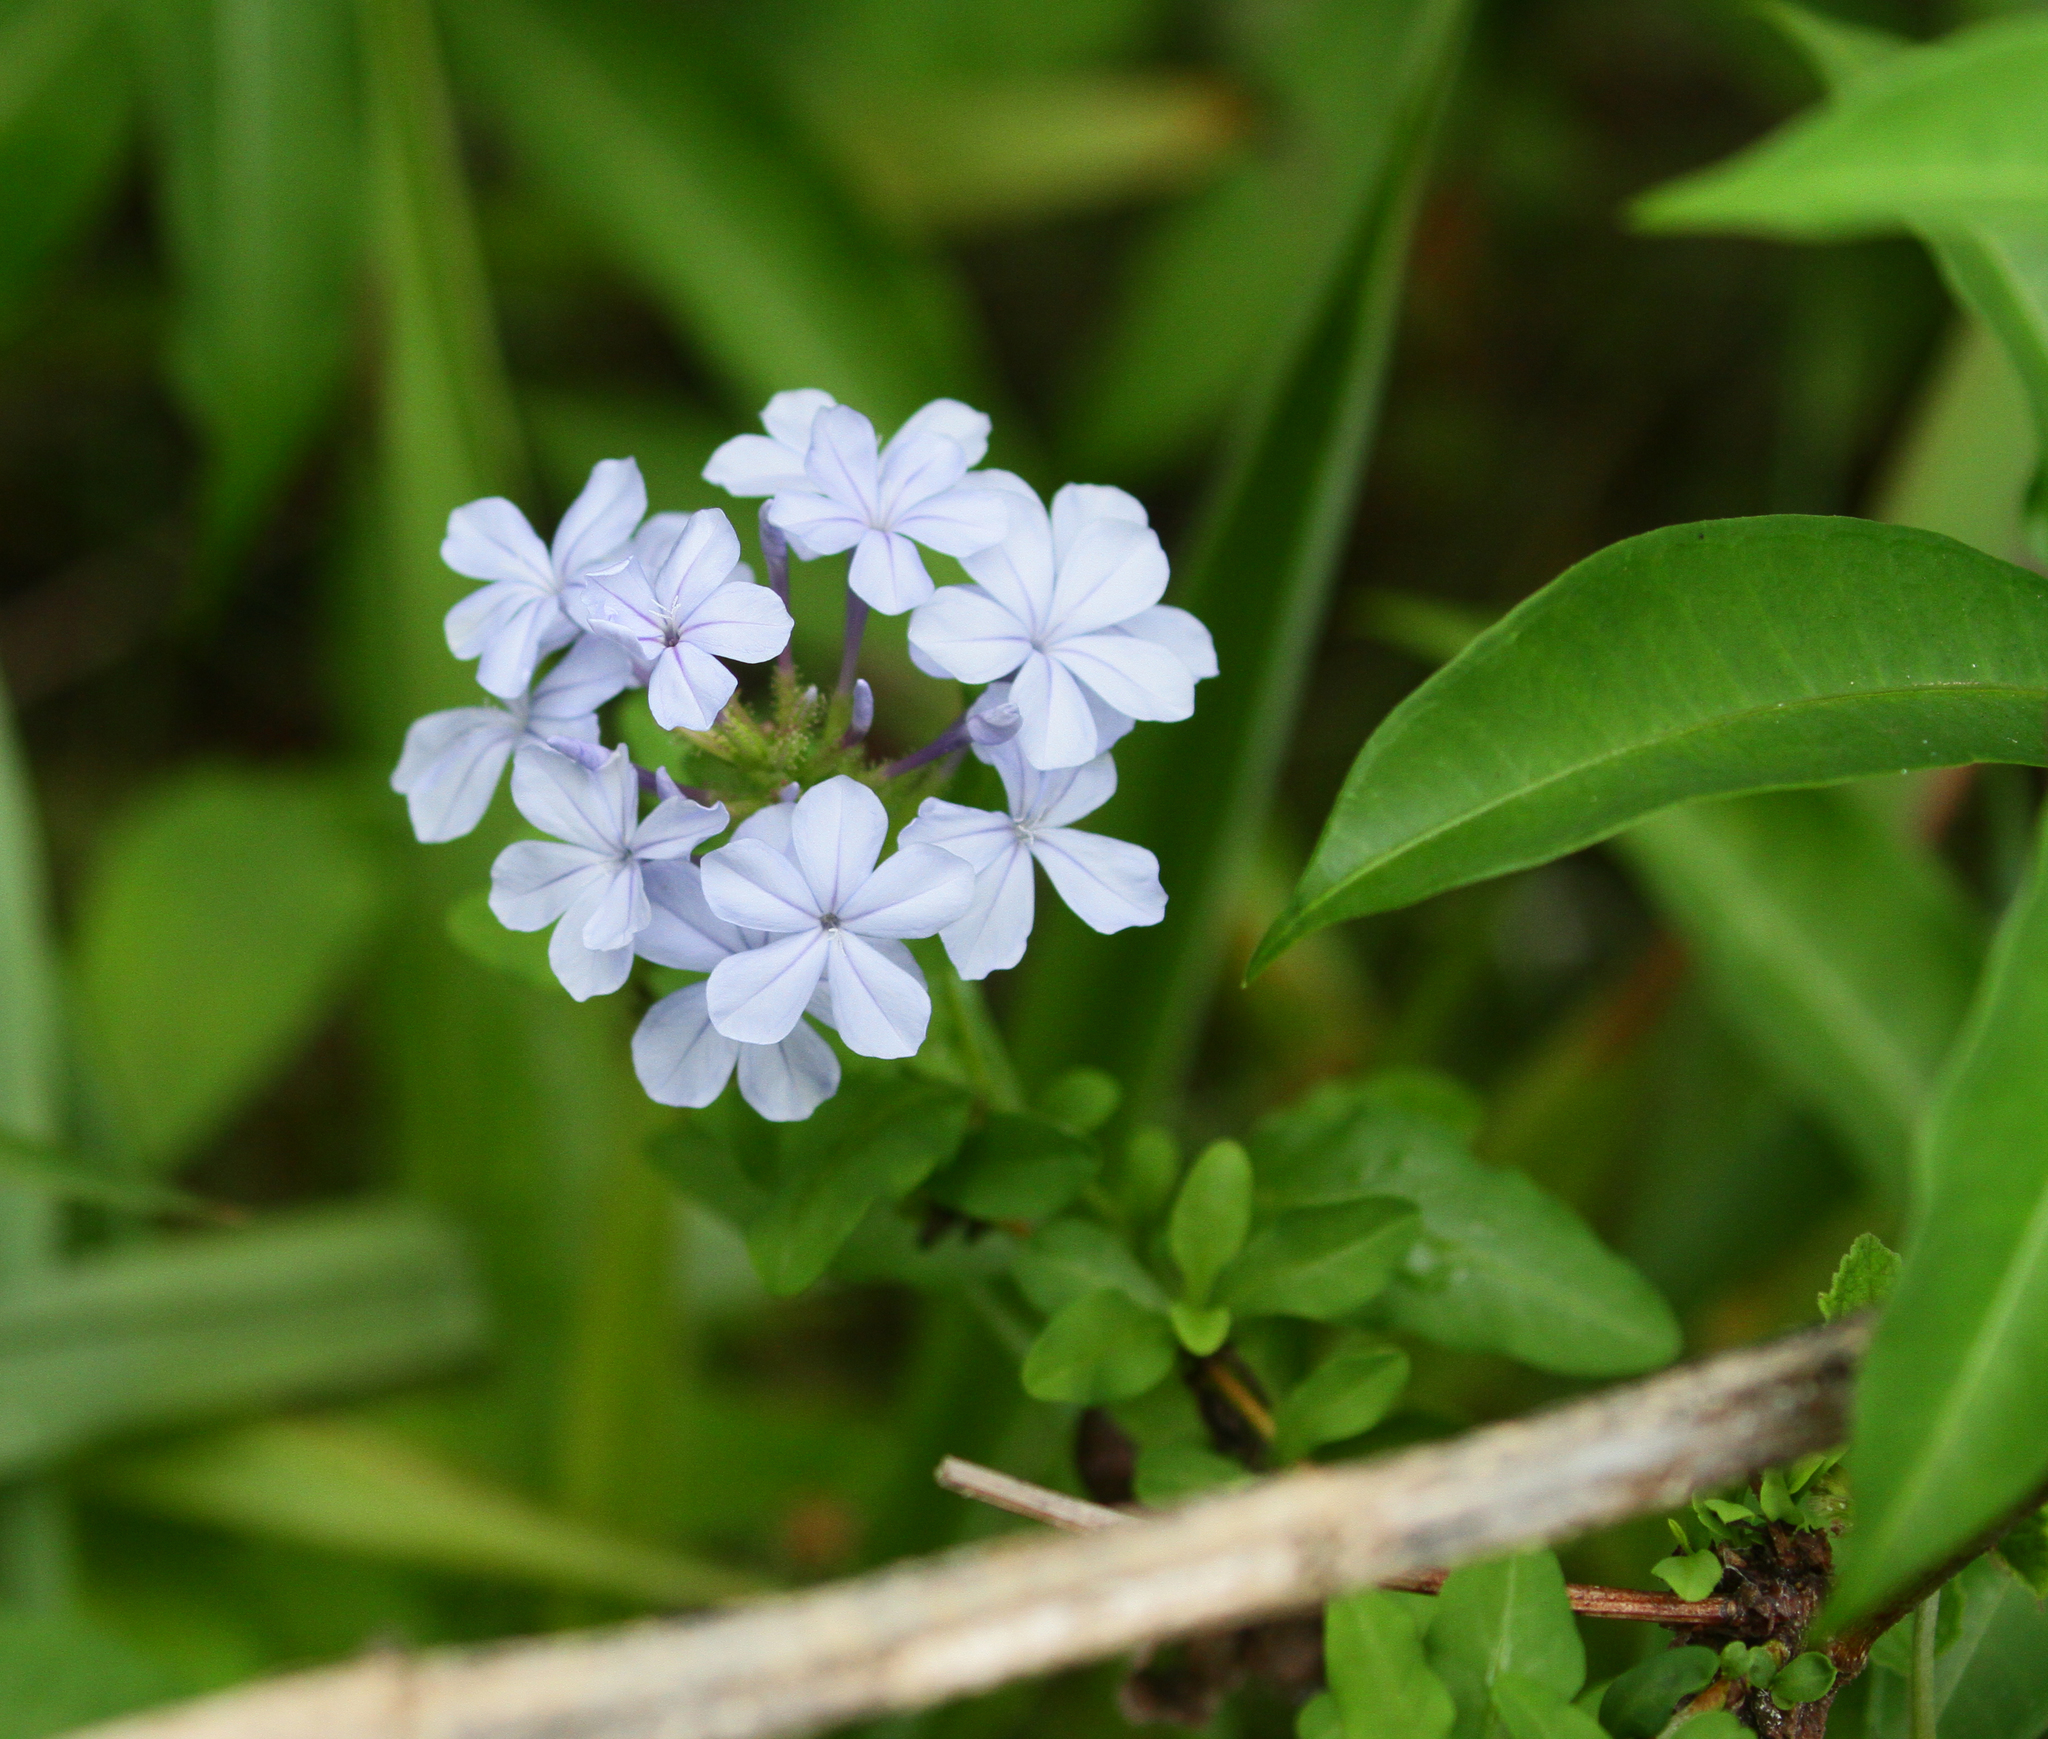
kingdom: Plantae
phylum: Tracheophyta
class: Magnoliopsida
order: Caryophyllales
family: Plumbaginaceae
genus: Plumbago
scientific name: Plumbago auriculata
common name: Cape leadwort
